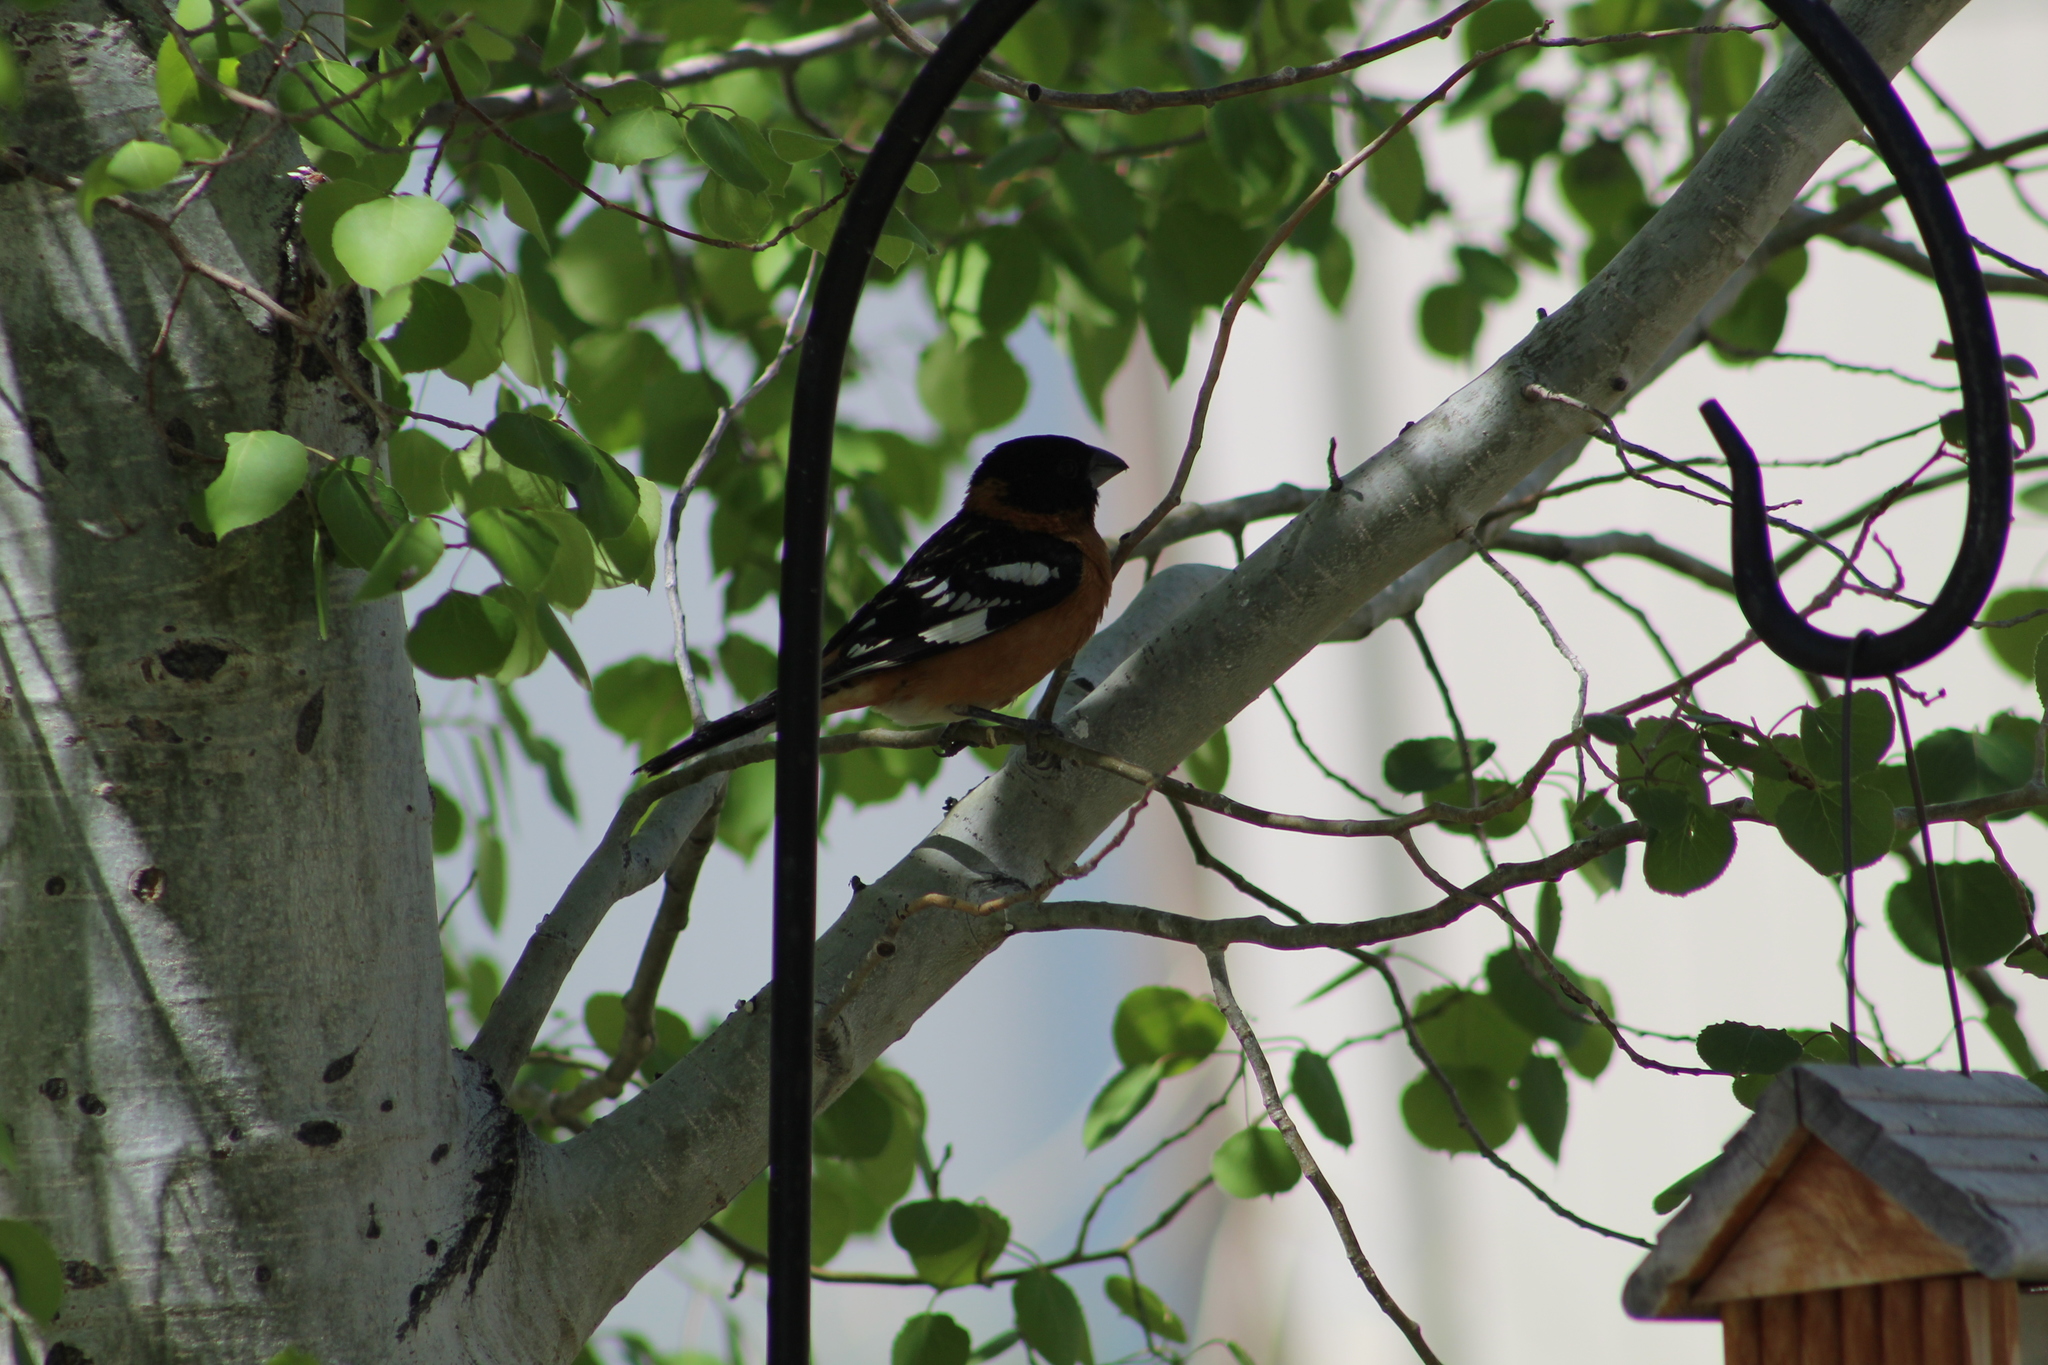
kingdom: Animalia
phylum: Chordata
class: Aves
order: Passeriformes
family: Cardinalidae
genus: Pheucticus
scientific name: Pheucticus melanocephalus
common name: Black-headed grosbeak
